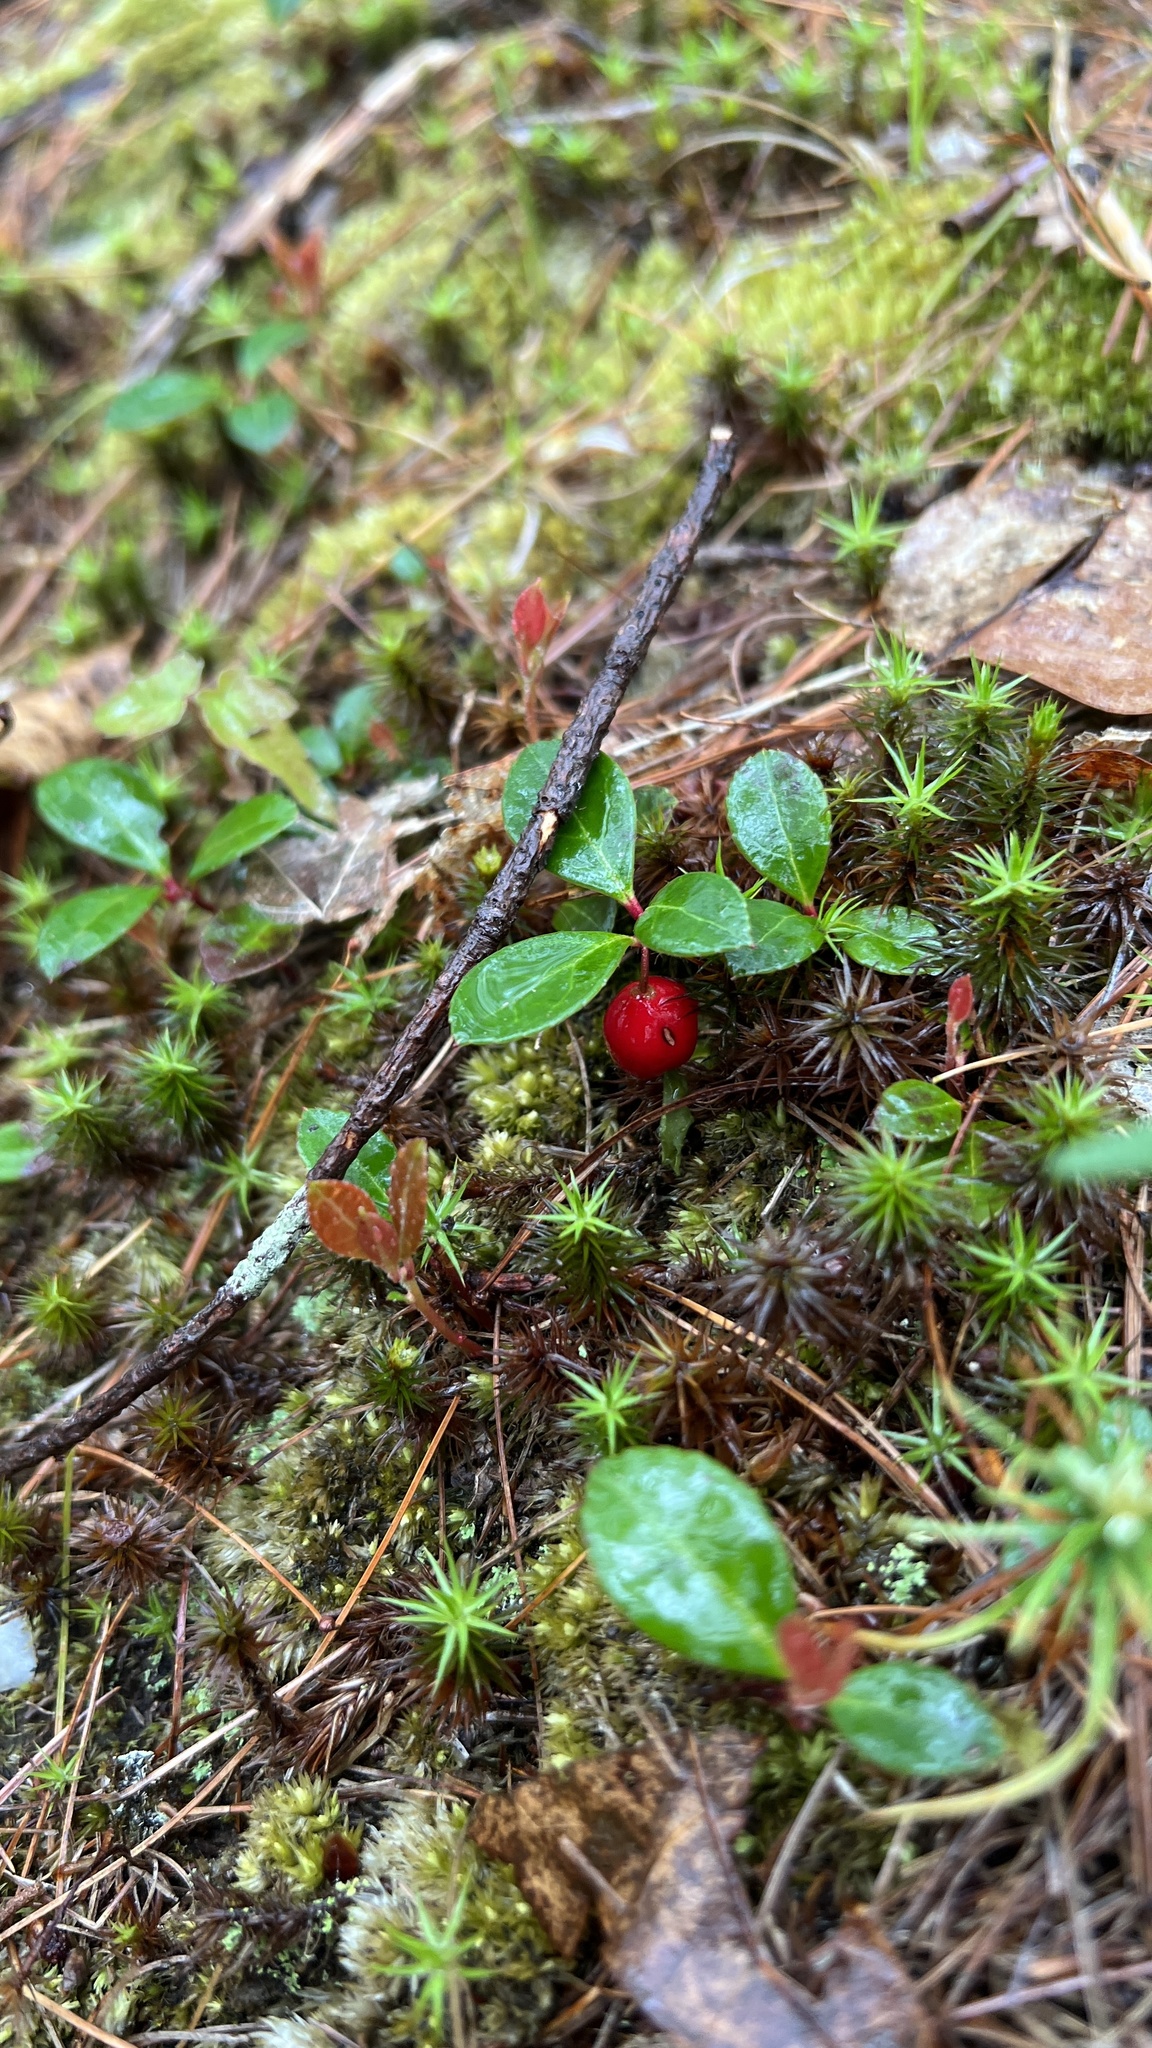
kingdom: Plantae
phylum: Tracheophyta
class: Magnoliopsida
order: Ericales
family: Ericaceae
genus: Gaultheria
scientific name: Gaultheria procumbens
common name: Checkerberry
